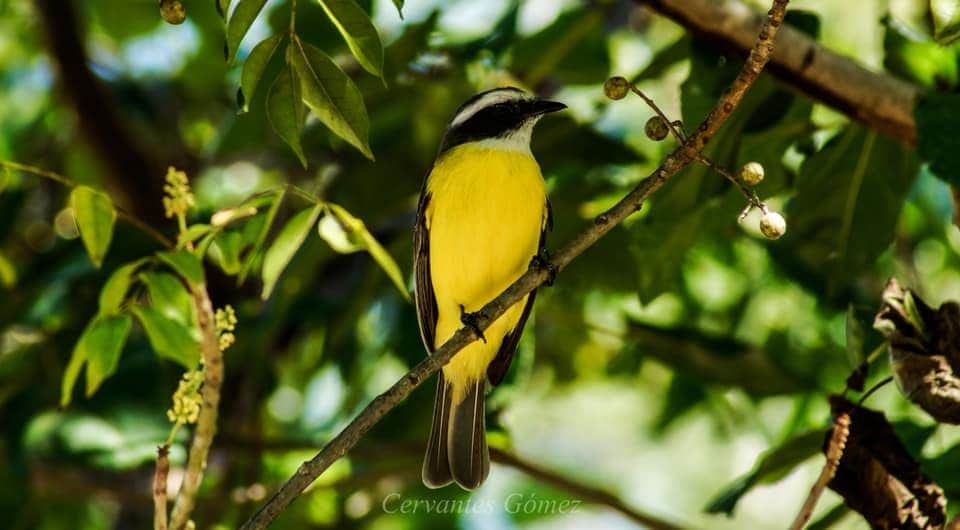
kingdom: Animalia
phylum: Chordata
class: Aves
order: Passeriformes
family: Tyrannidae
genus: Myiozetetes
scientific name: Myiozetetes similis
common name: Social flycatcher
